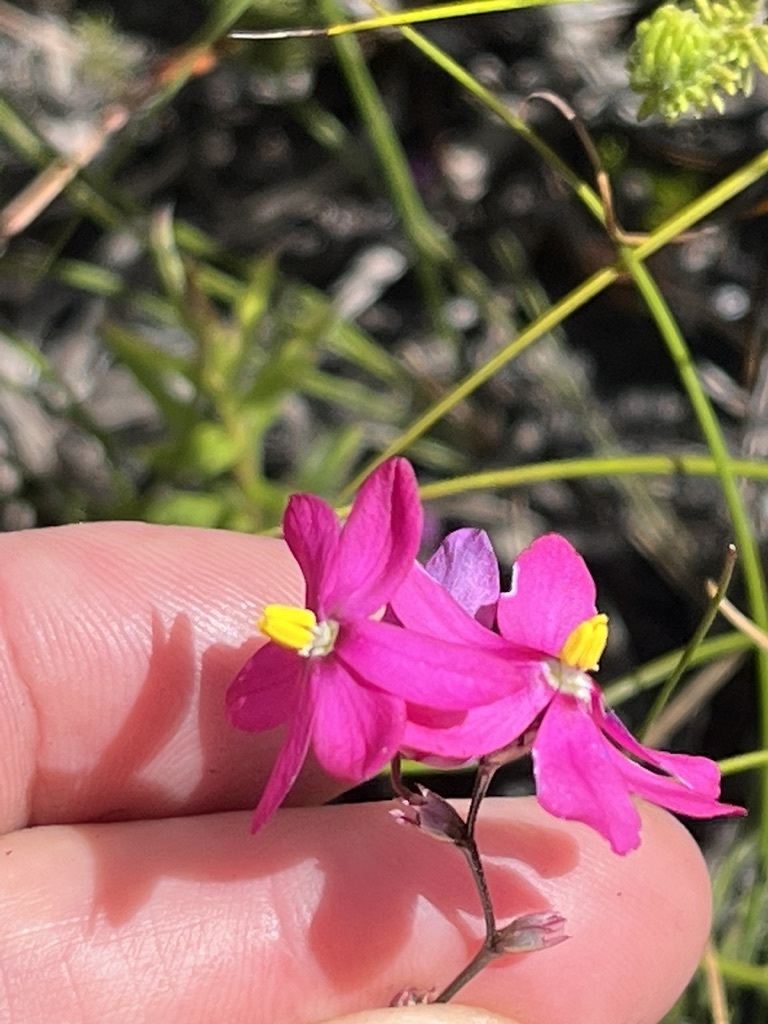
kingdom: Plantae
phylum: Tracheophyta
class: Liliopsida
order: Asparagales
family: Iridaceae
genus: Ixia
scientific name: Ixia stricta
